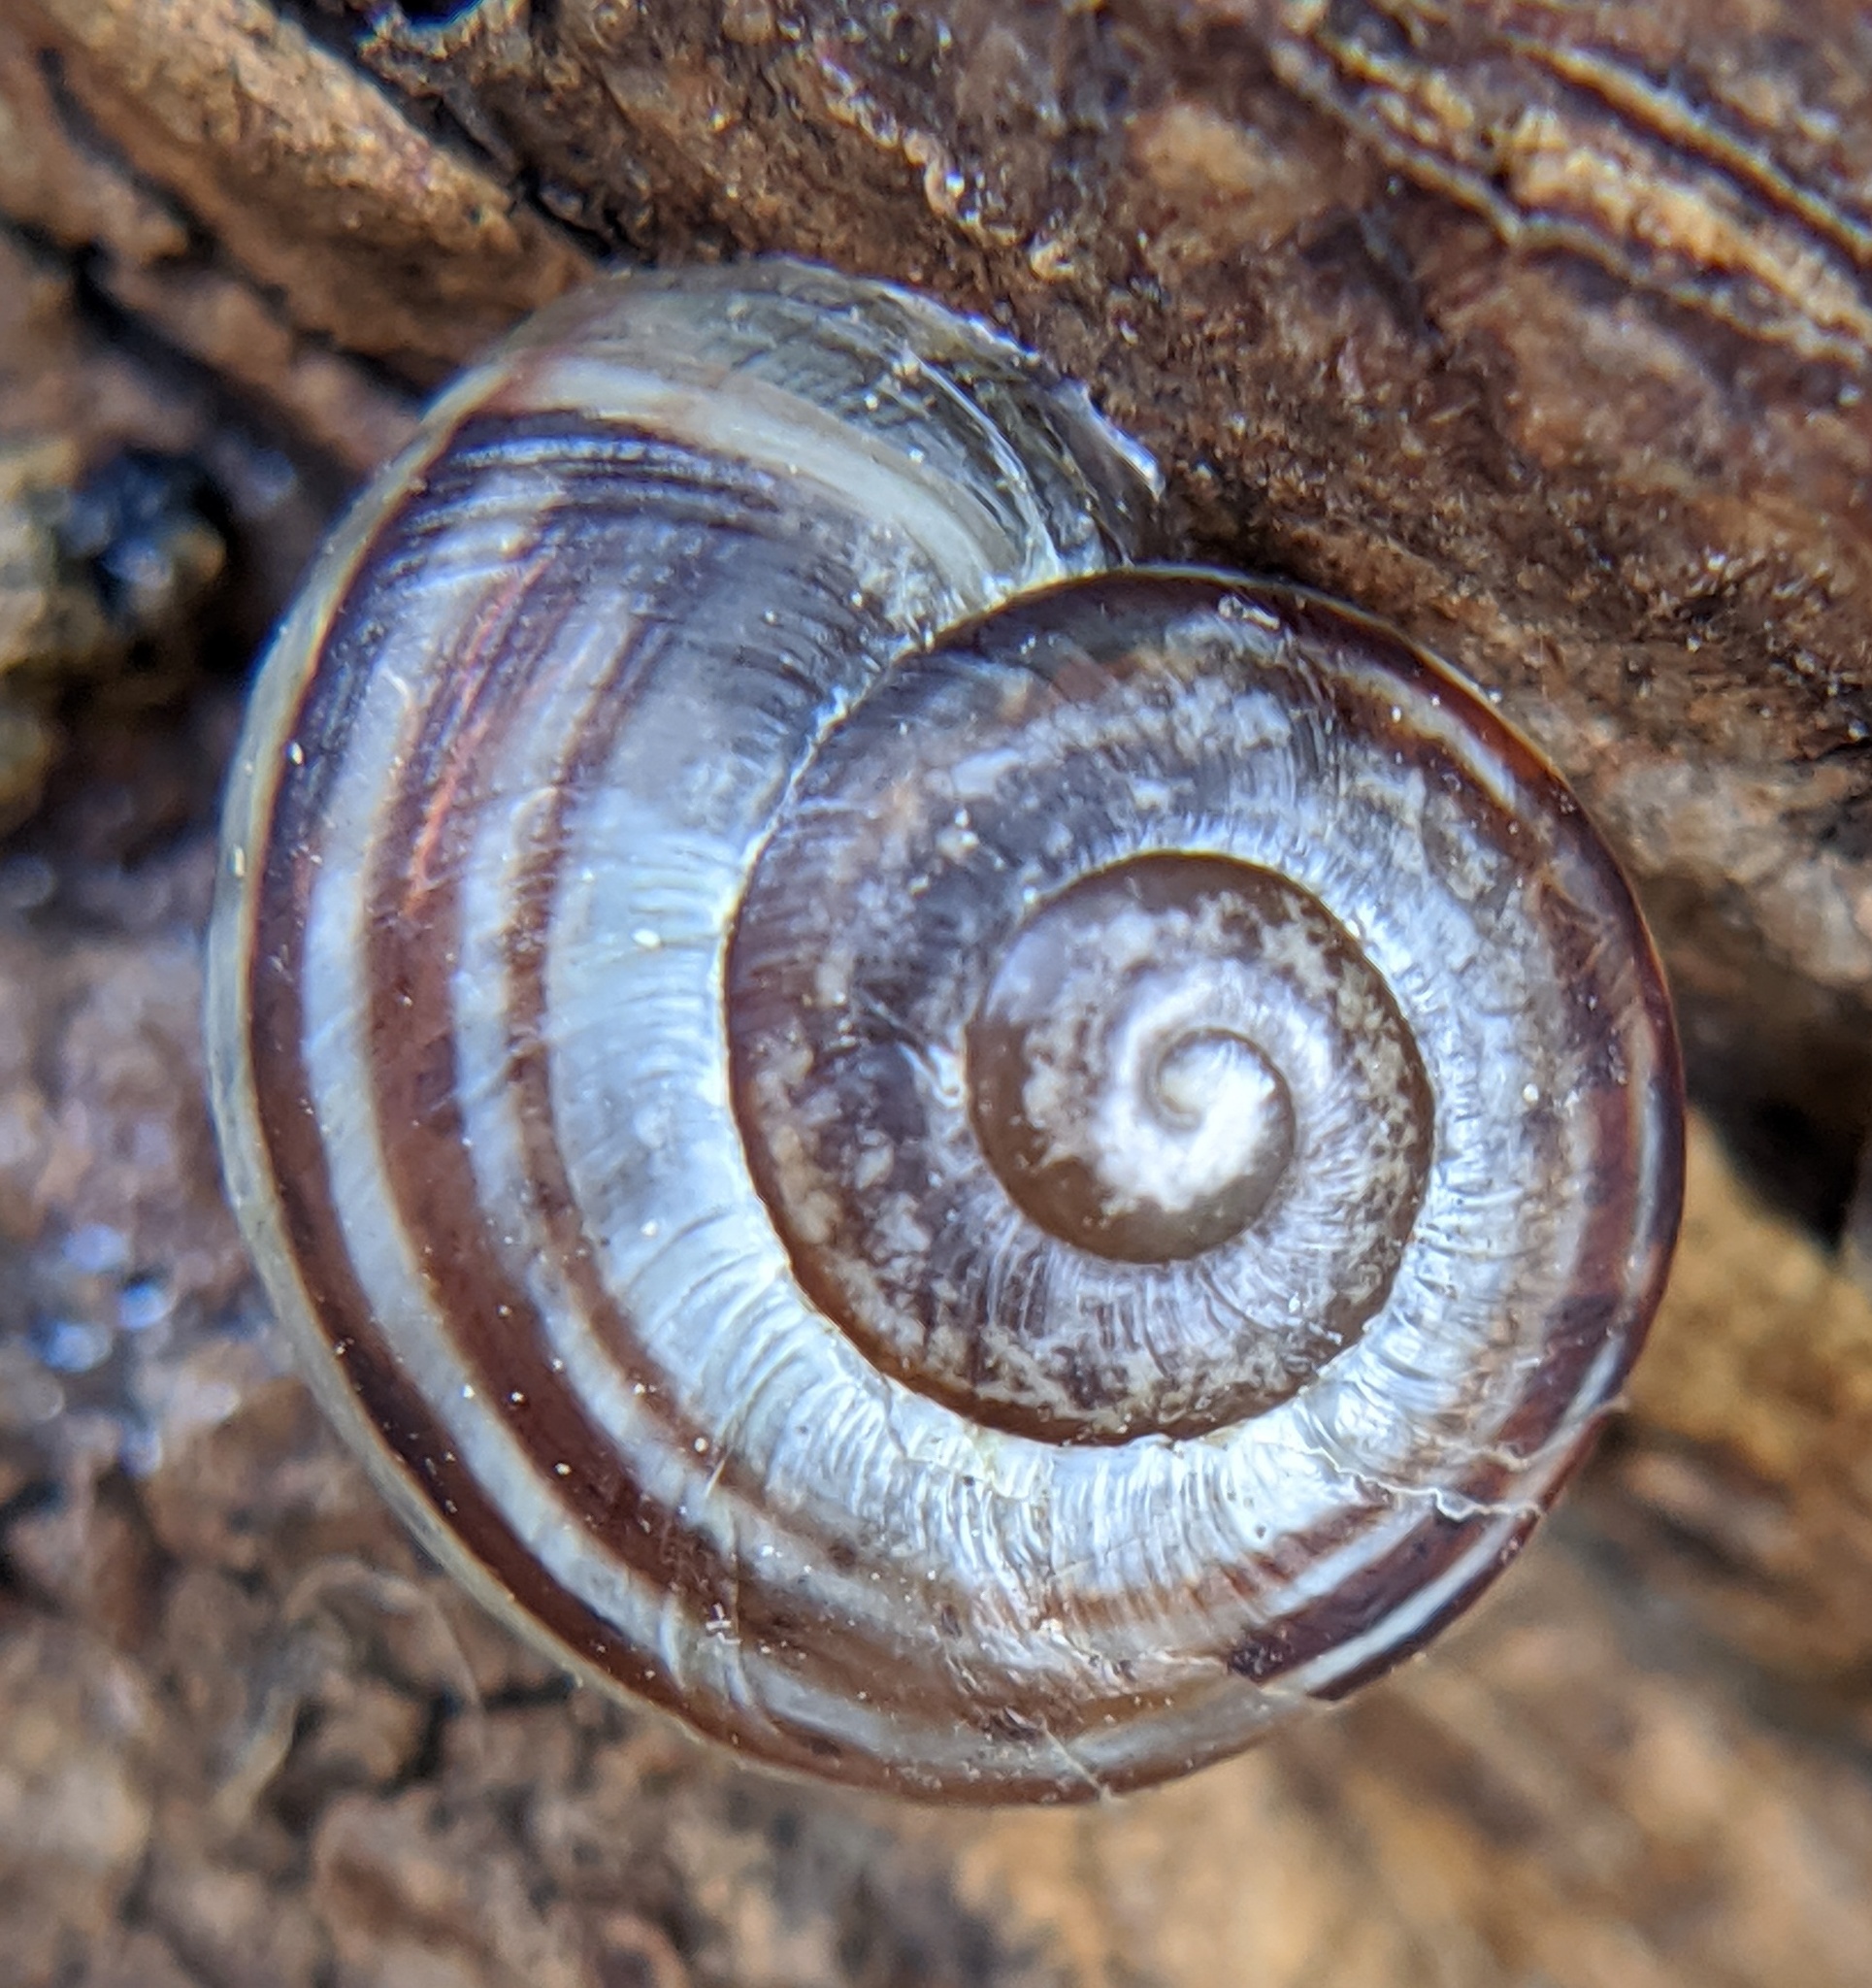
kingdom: Animalia
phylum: Mollusca
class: Gastropoda
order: Stylommatophora
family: Helicidae
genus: Cepaea
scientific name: Cepaea
